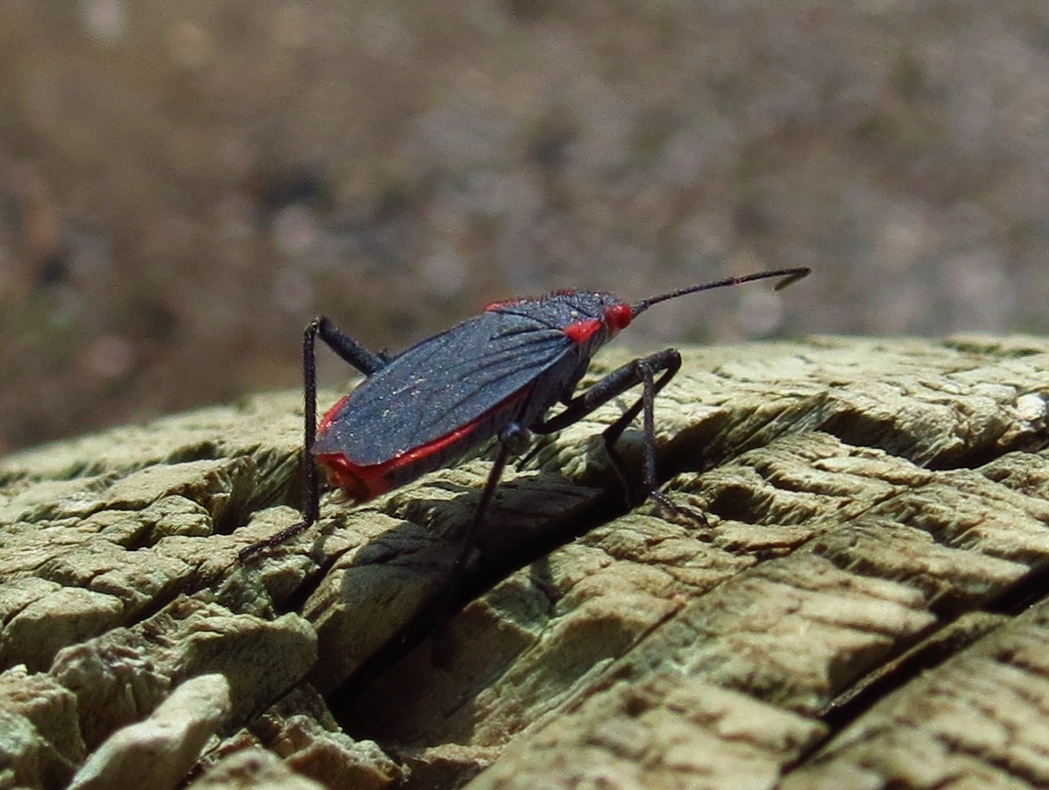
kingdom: Animalia
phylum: Arthropoda
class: Insecta
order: Hemiptera
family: Rhopalidae
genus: Jadera
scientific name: Jadera haematoloma
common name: Red-shouldered bug
